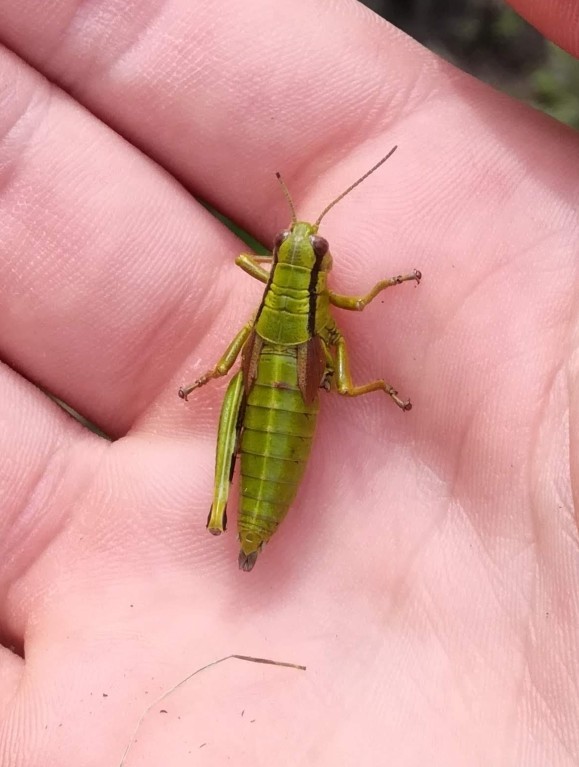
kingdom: Animalia
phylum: Arthropoda
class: Insecta
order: Orthoptera
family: Acrididae
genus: Miramella
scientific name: Miramella alpina
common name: Green mountain grasshopper
